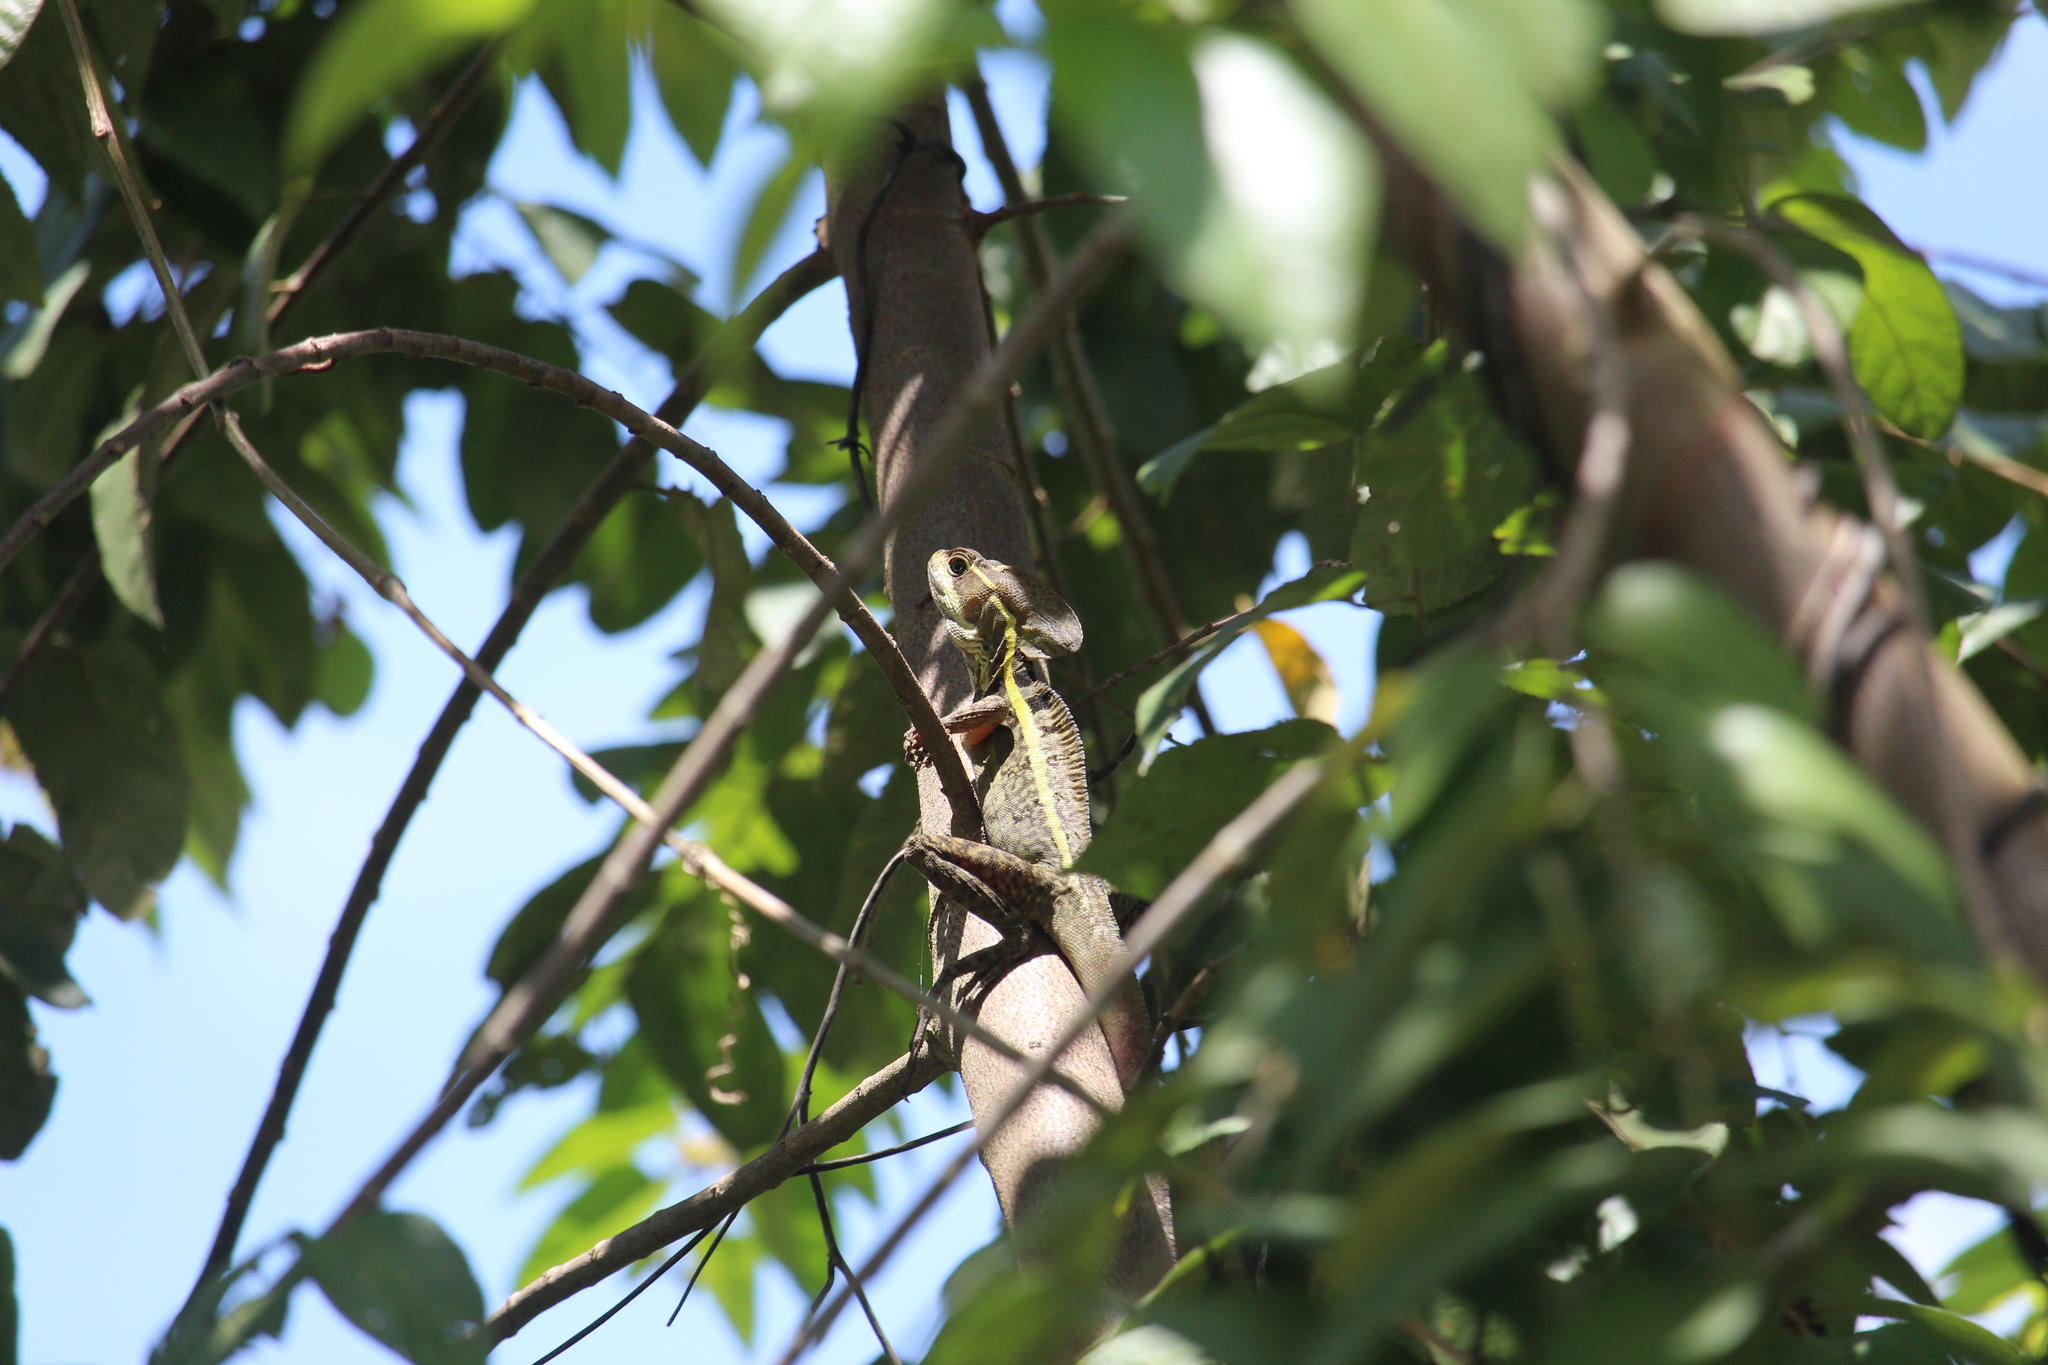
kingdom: Animalia
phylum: Chordata
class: Squamata
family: Corytophanidae
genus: Basiliscus
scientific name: Basiliscus vittatus
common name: Brown basilisk
